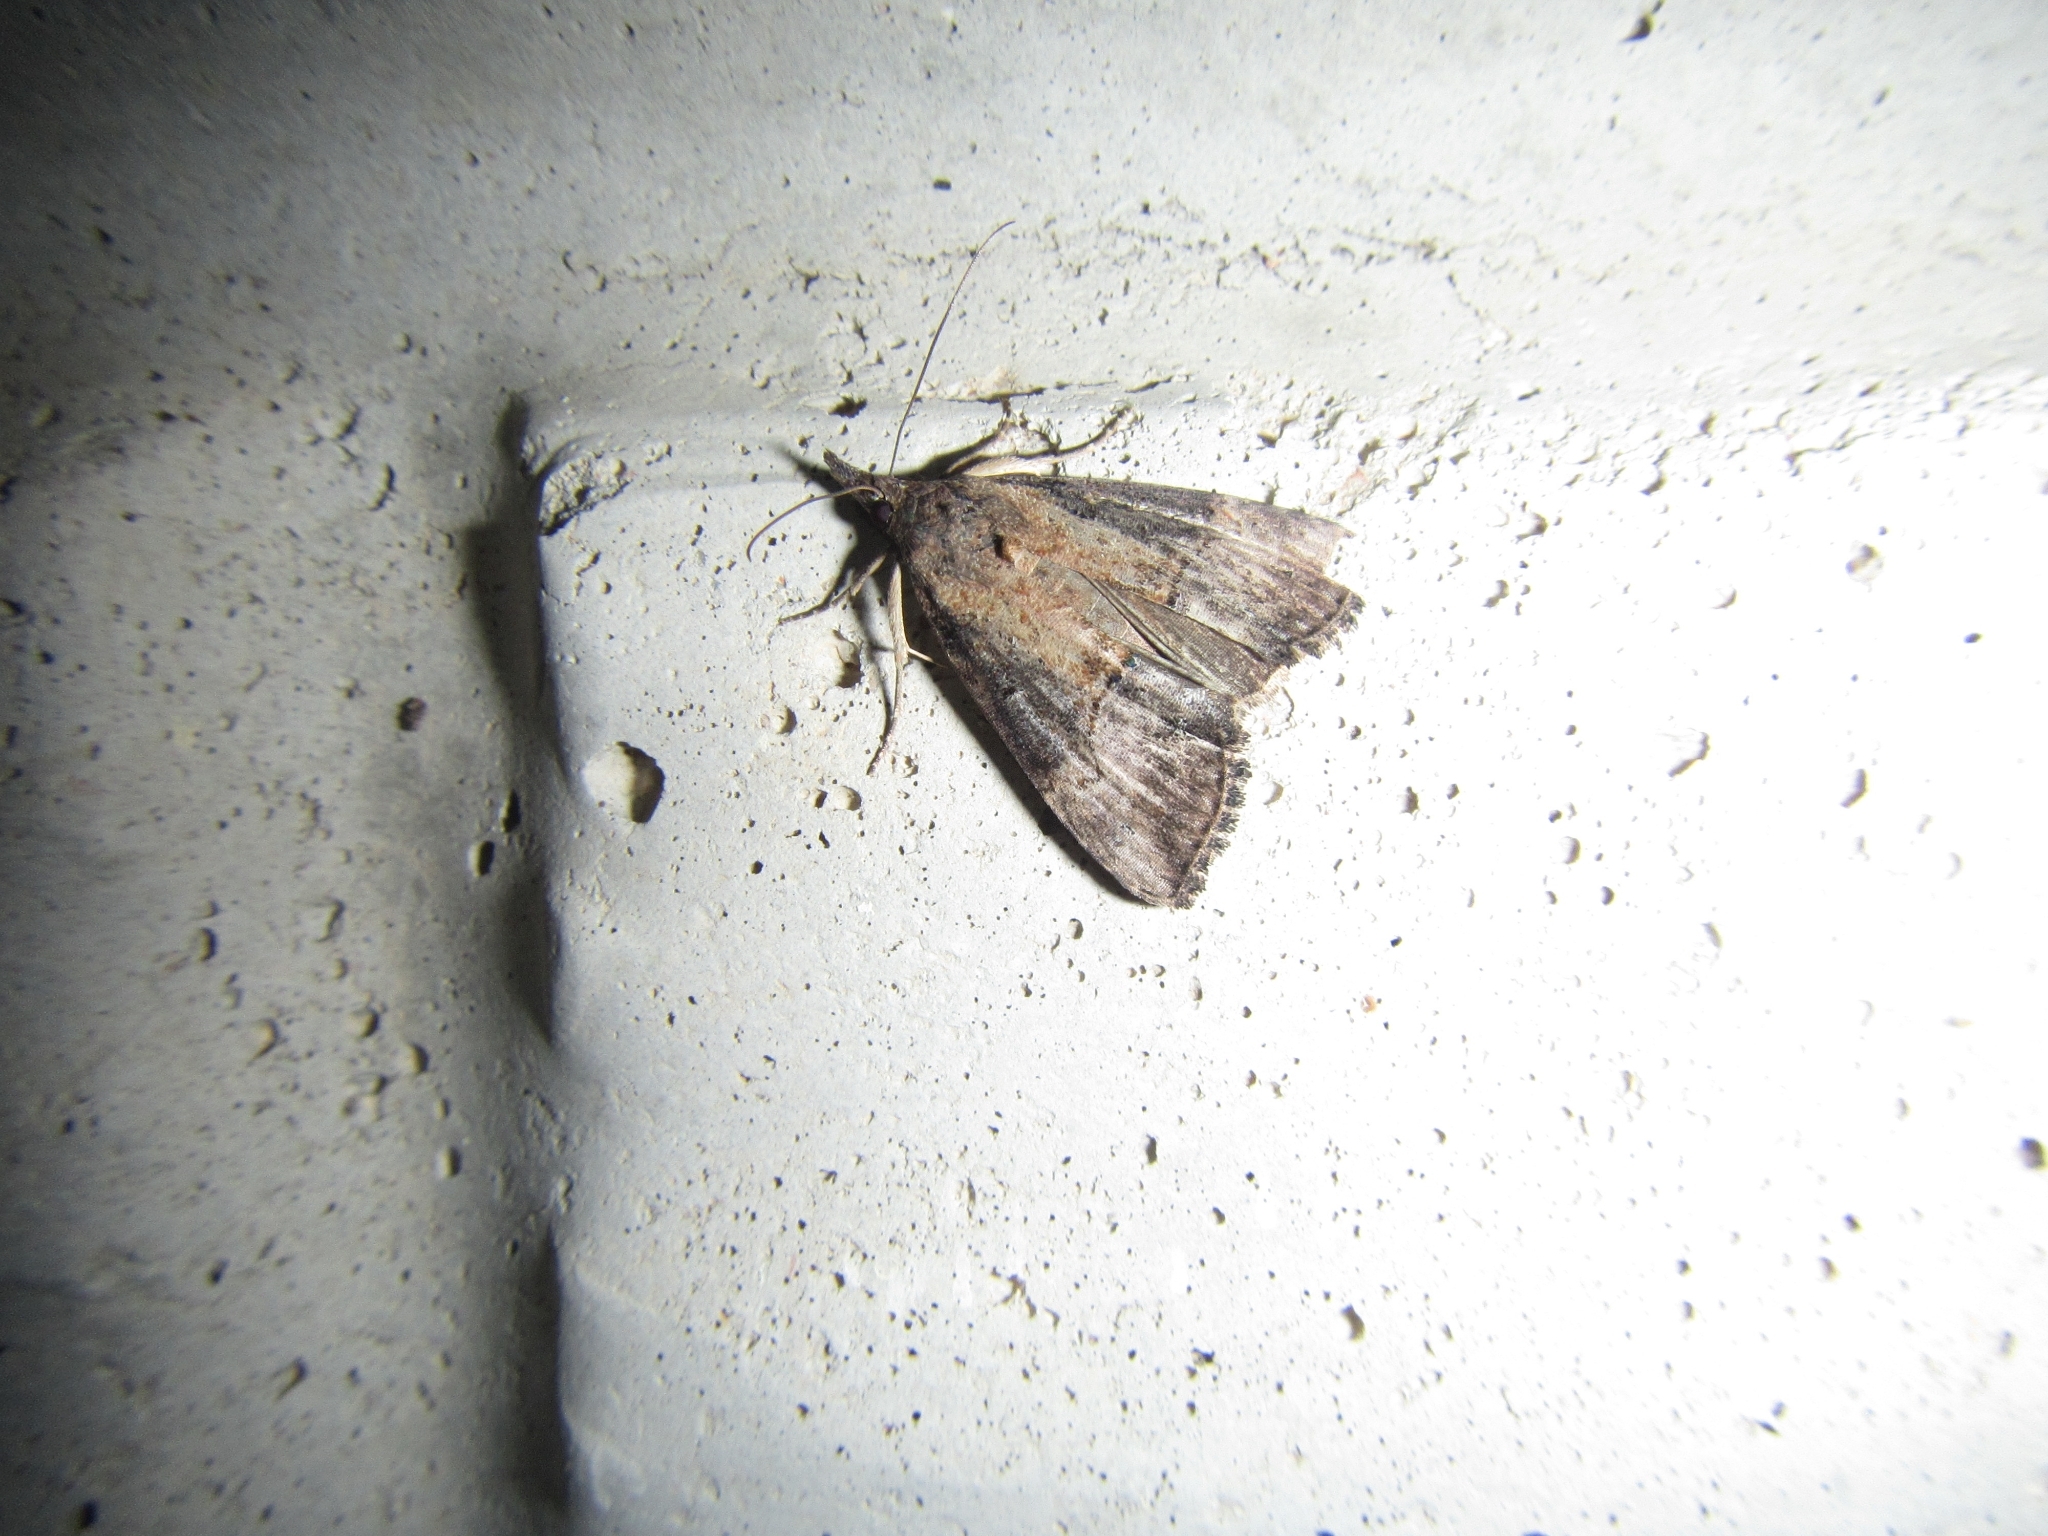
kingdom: Animalia
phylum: Arthropoda
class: Insecta
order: Lepidoptera
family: Erebidae
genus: Hypena
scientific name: Hypena scabra
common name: Green cloverworm
